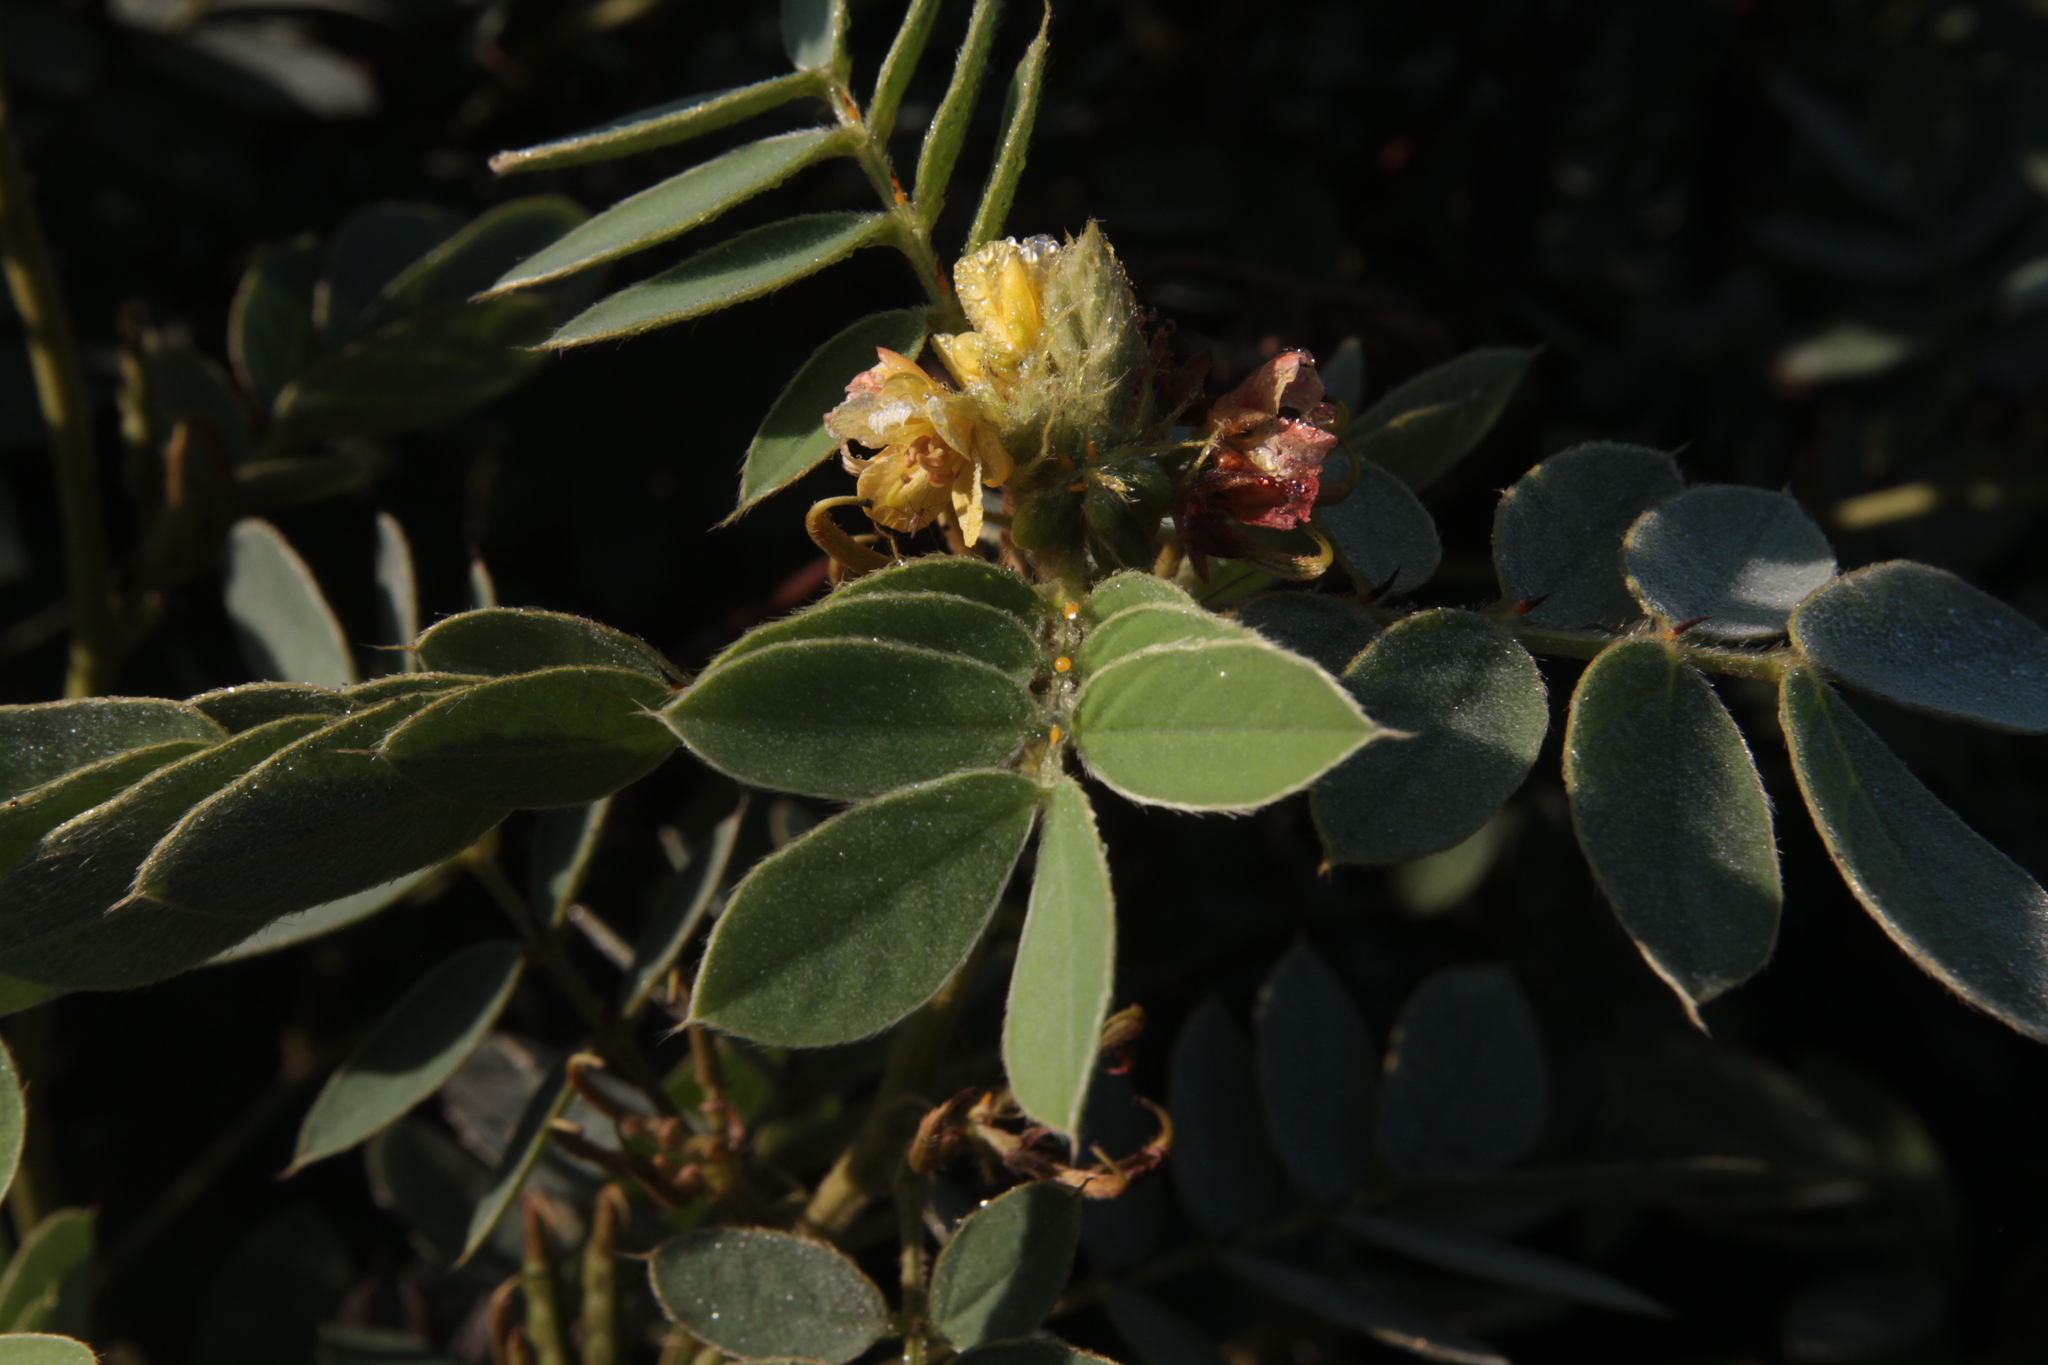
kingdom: Plantae
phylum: Tracheophyta
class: Magnoliopsida
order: Fabales
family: Fabaceae
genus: Senna
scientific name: Senna uniflora
